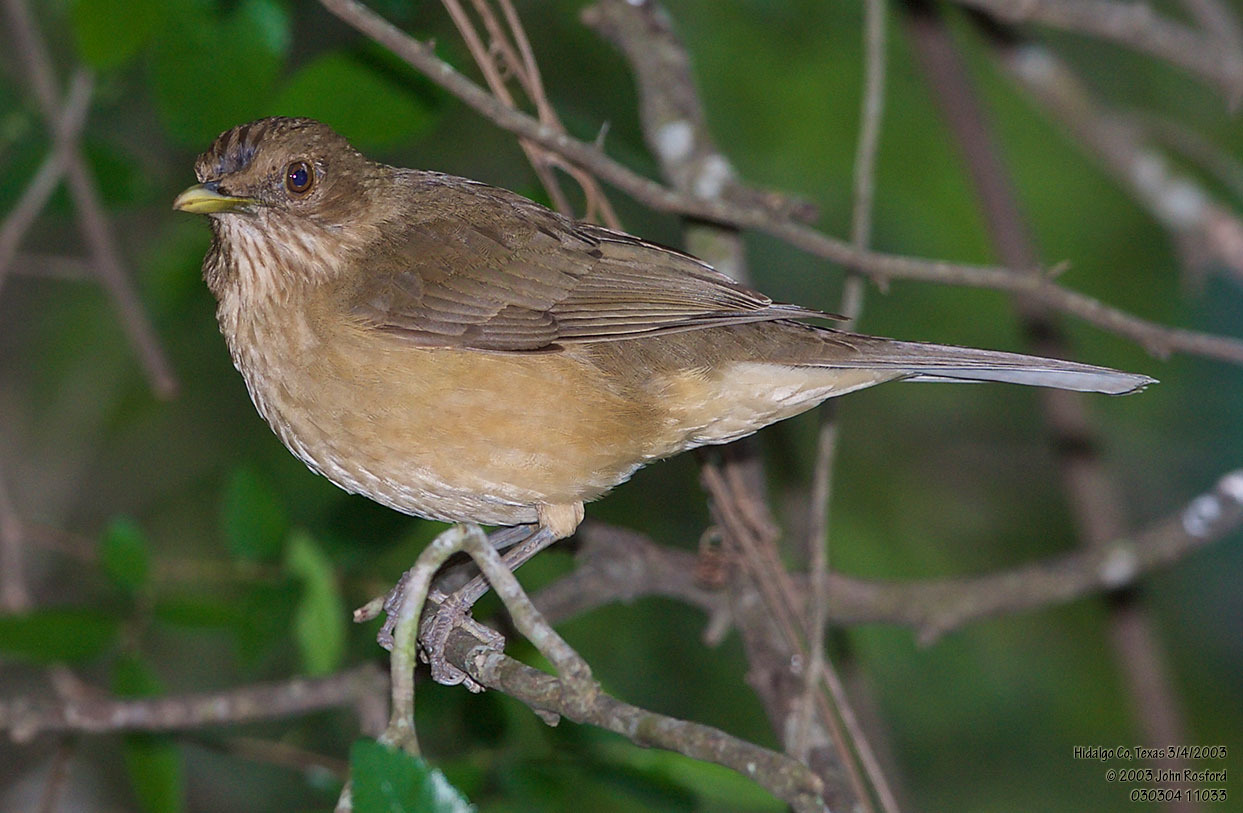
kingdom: Animalia
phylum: Chordata
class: Aves
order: Passeriformes
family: Turdidae
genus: Turdus
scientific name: Turdus grayi
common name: Clay-colored thrush
